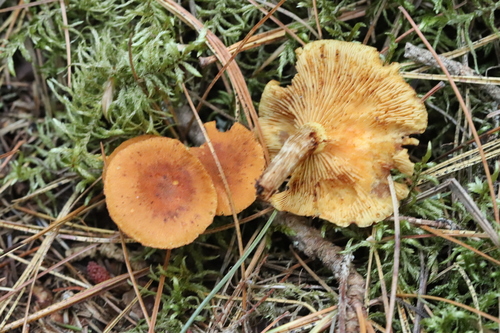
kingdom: Fungi
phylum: Basidiomycota
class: Agaricomycetes
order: Agaricales
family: Hymenogastraceae
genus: Gymnopilus
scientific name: Gymnopilus penetrans
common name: Common rustgill
